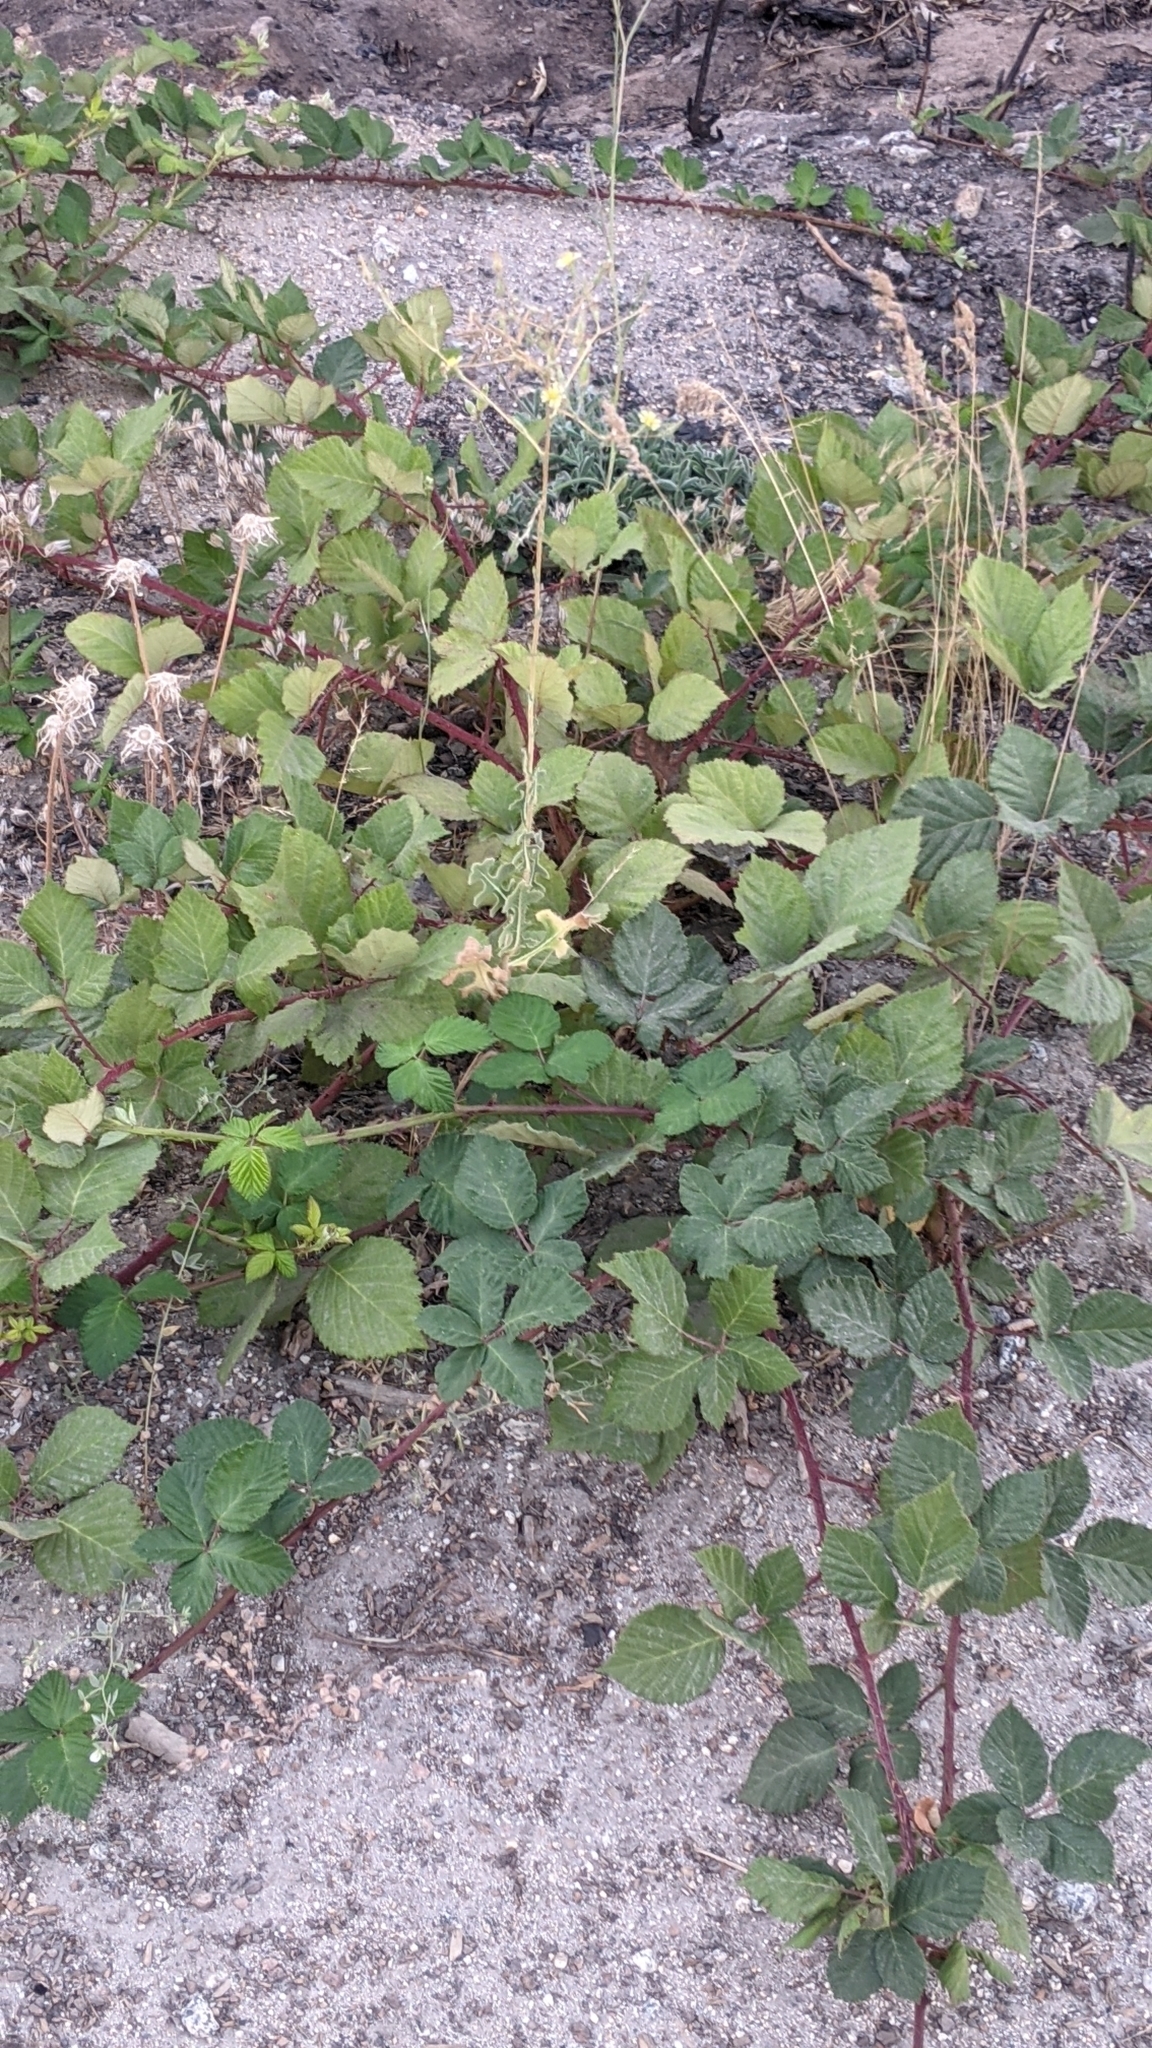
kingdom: Plantae
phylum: Tracheophyta
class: Magnoliopsida
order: Rosales
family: Rosaceae
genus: Rubus
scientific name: Rubus armeniacus
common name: Himalayan blackberry
